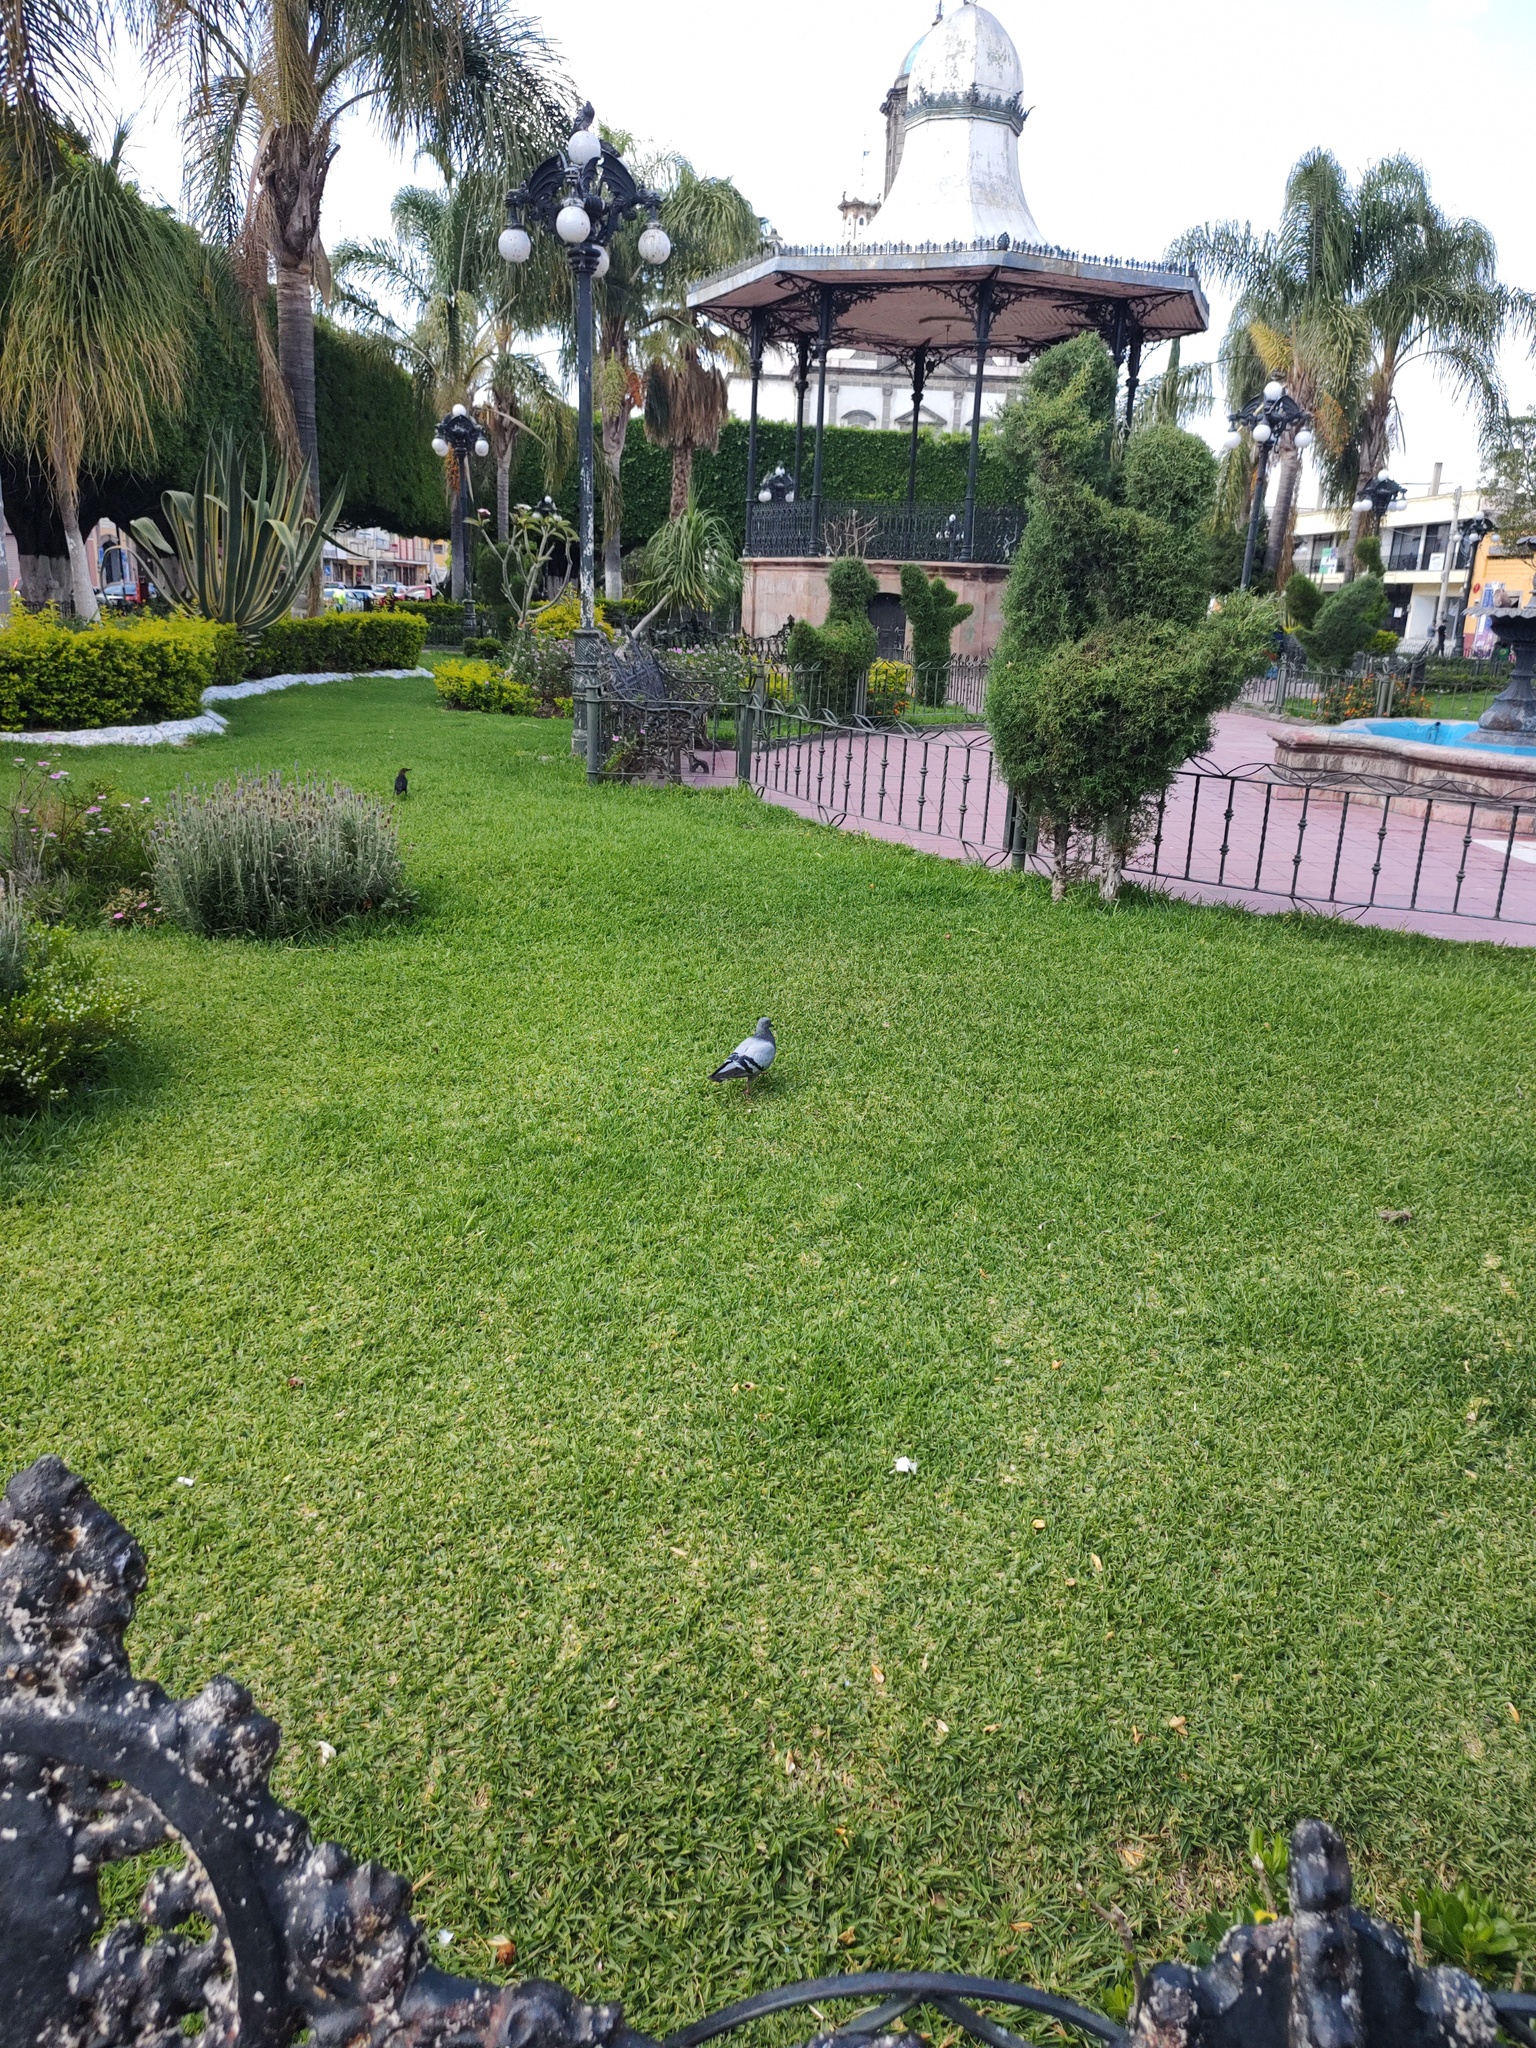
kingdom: Animalia
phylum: Chordata
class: Aves
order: Columbiformes
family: Columbidae
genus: Columba
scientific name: Columba livia
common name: Rock pigeon
